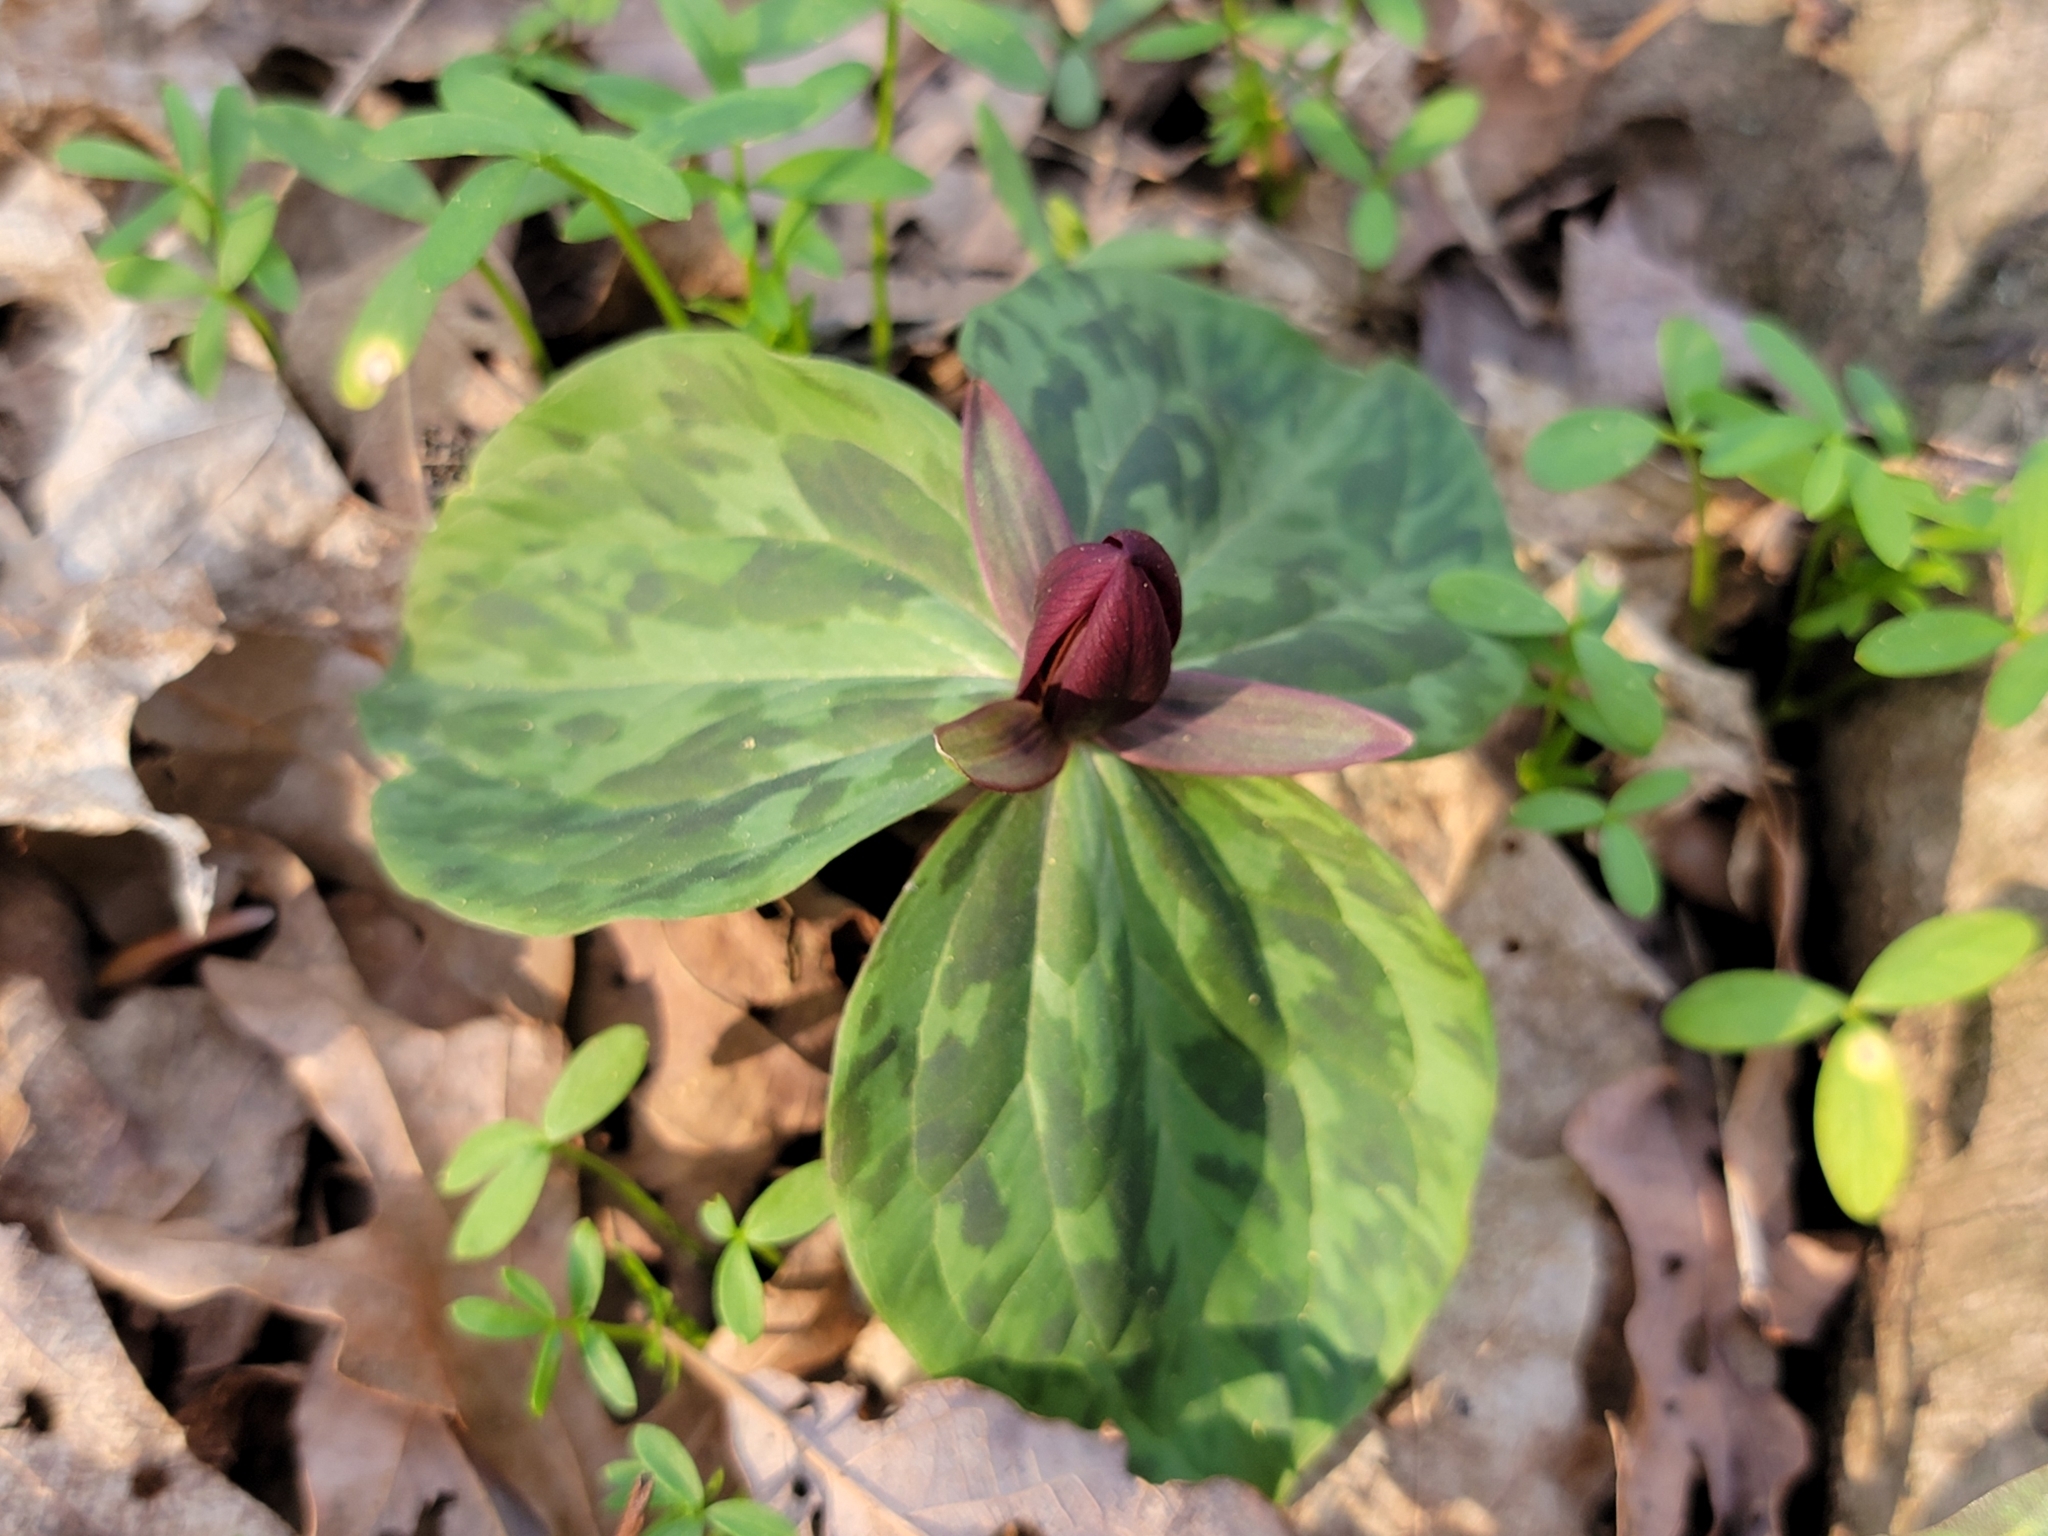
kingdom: Plantae
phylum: Tracheophyta
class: Liliopsida
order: Liliales
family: Melanthiaceae
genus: Trillium
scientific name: Trillium sessile
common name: Sessile trillium
